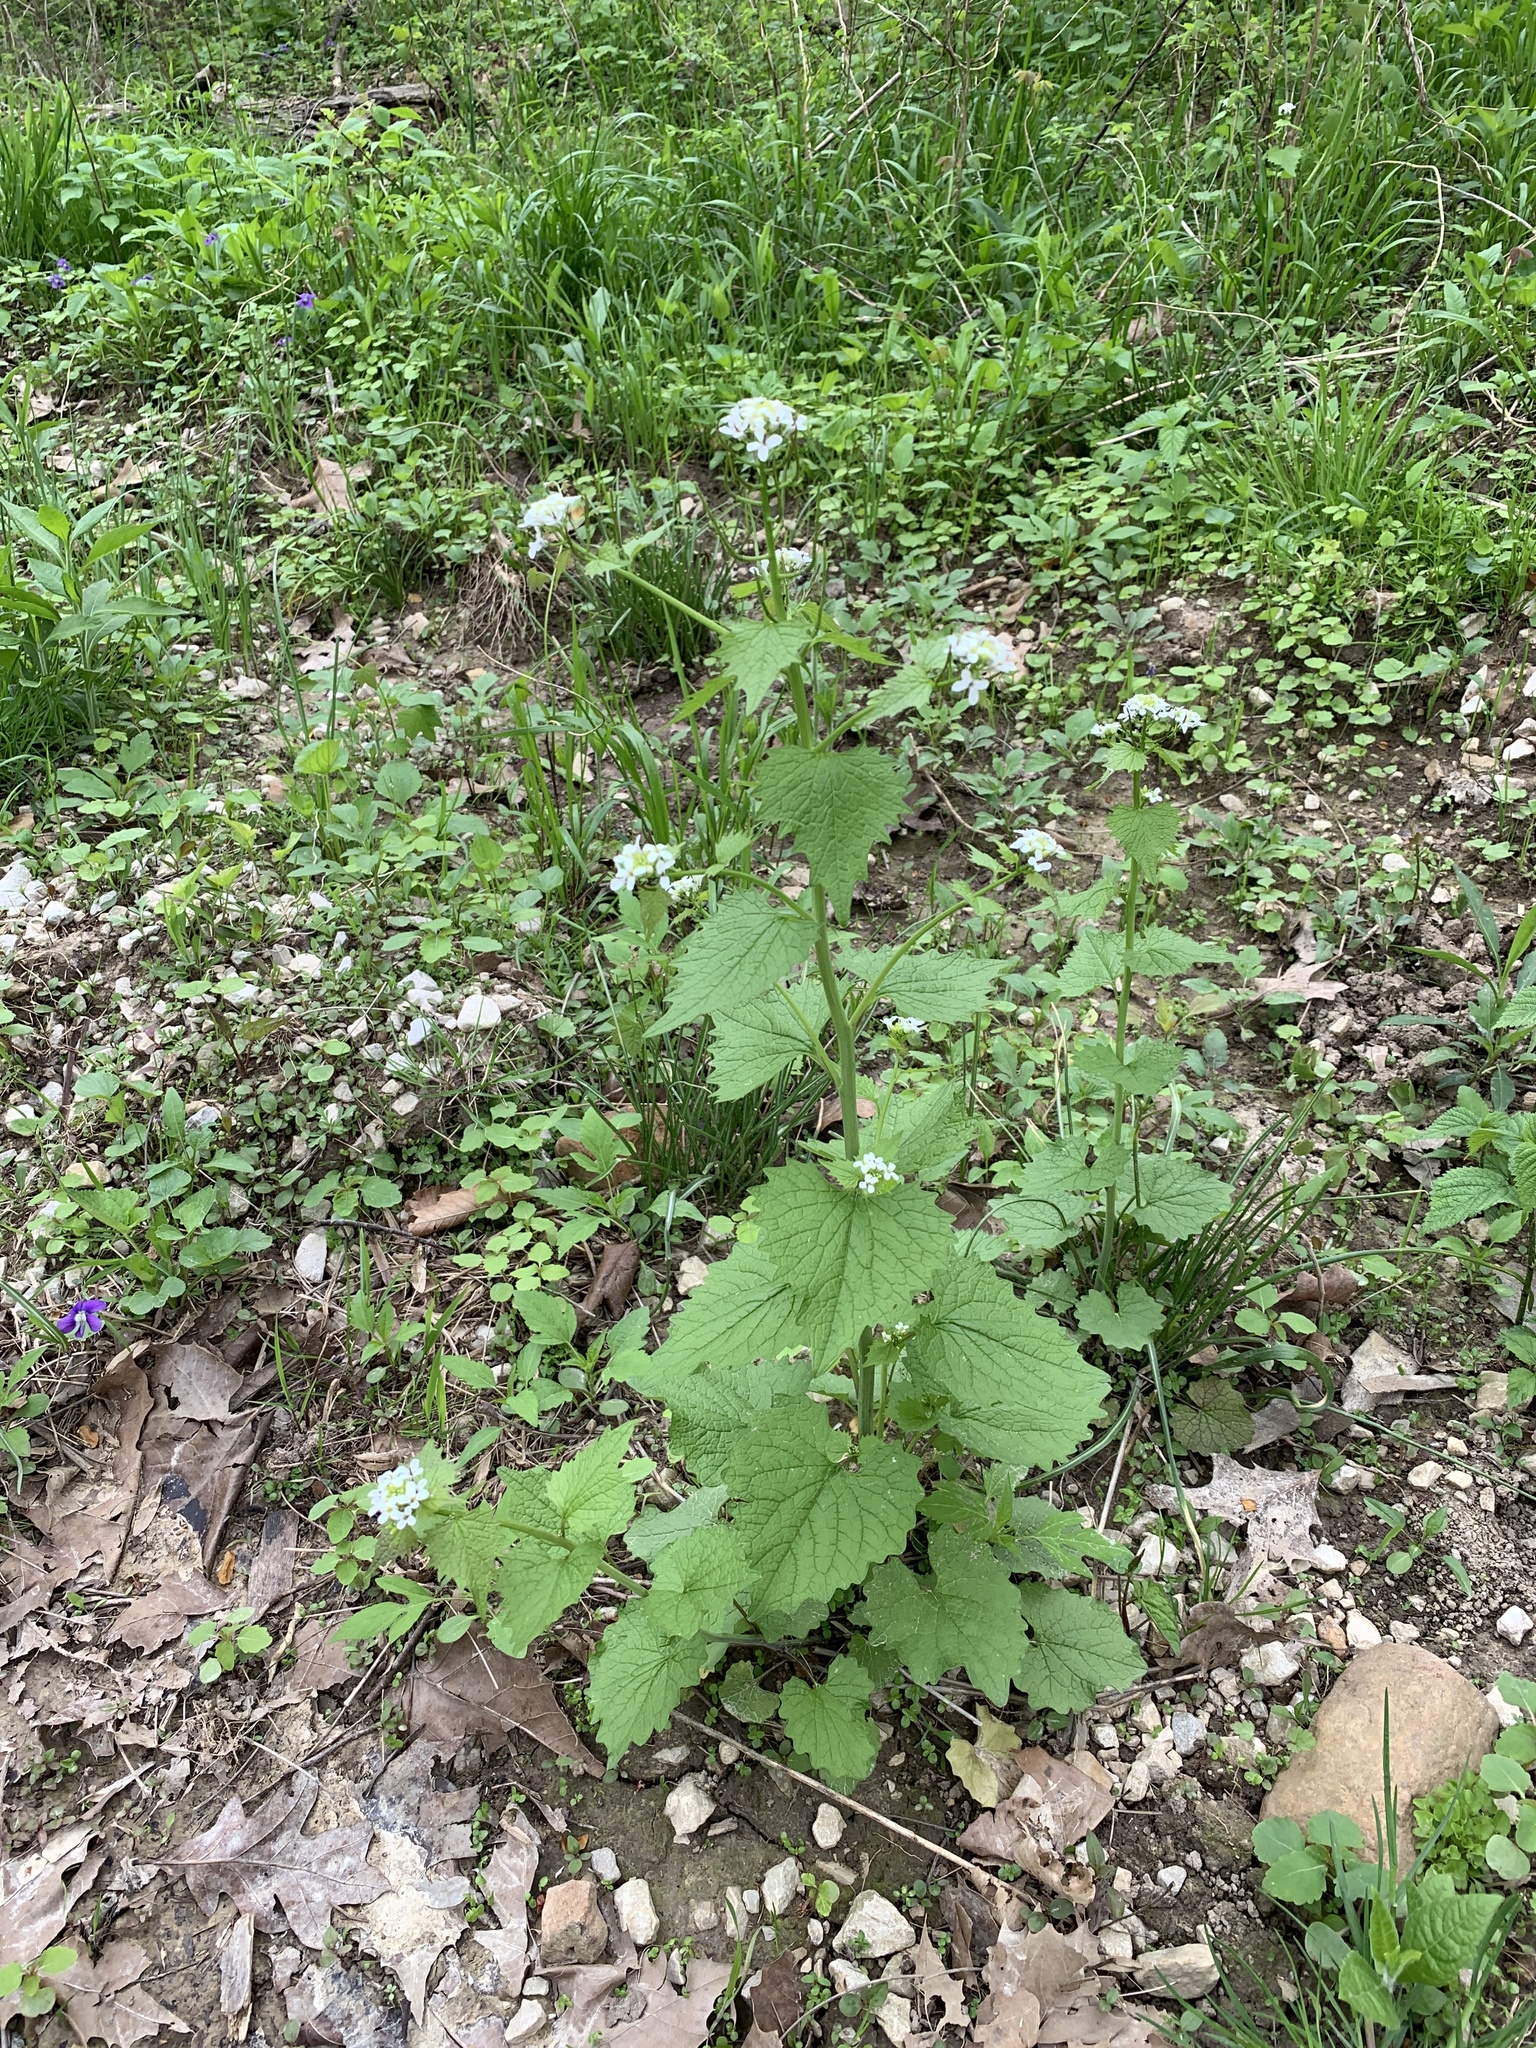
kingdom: Plantae
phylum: Tracheophyta
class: Magnoliopsida
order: Brassicales
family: Brassicaceae
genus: Alliaria
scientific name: Alliaria petiolata
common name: Garlic mustard
